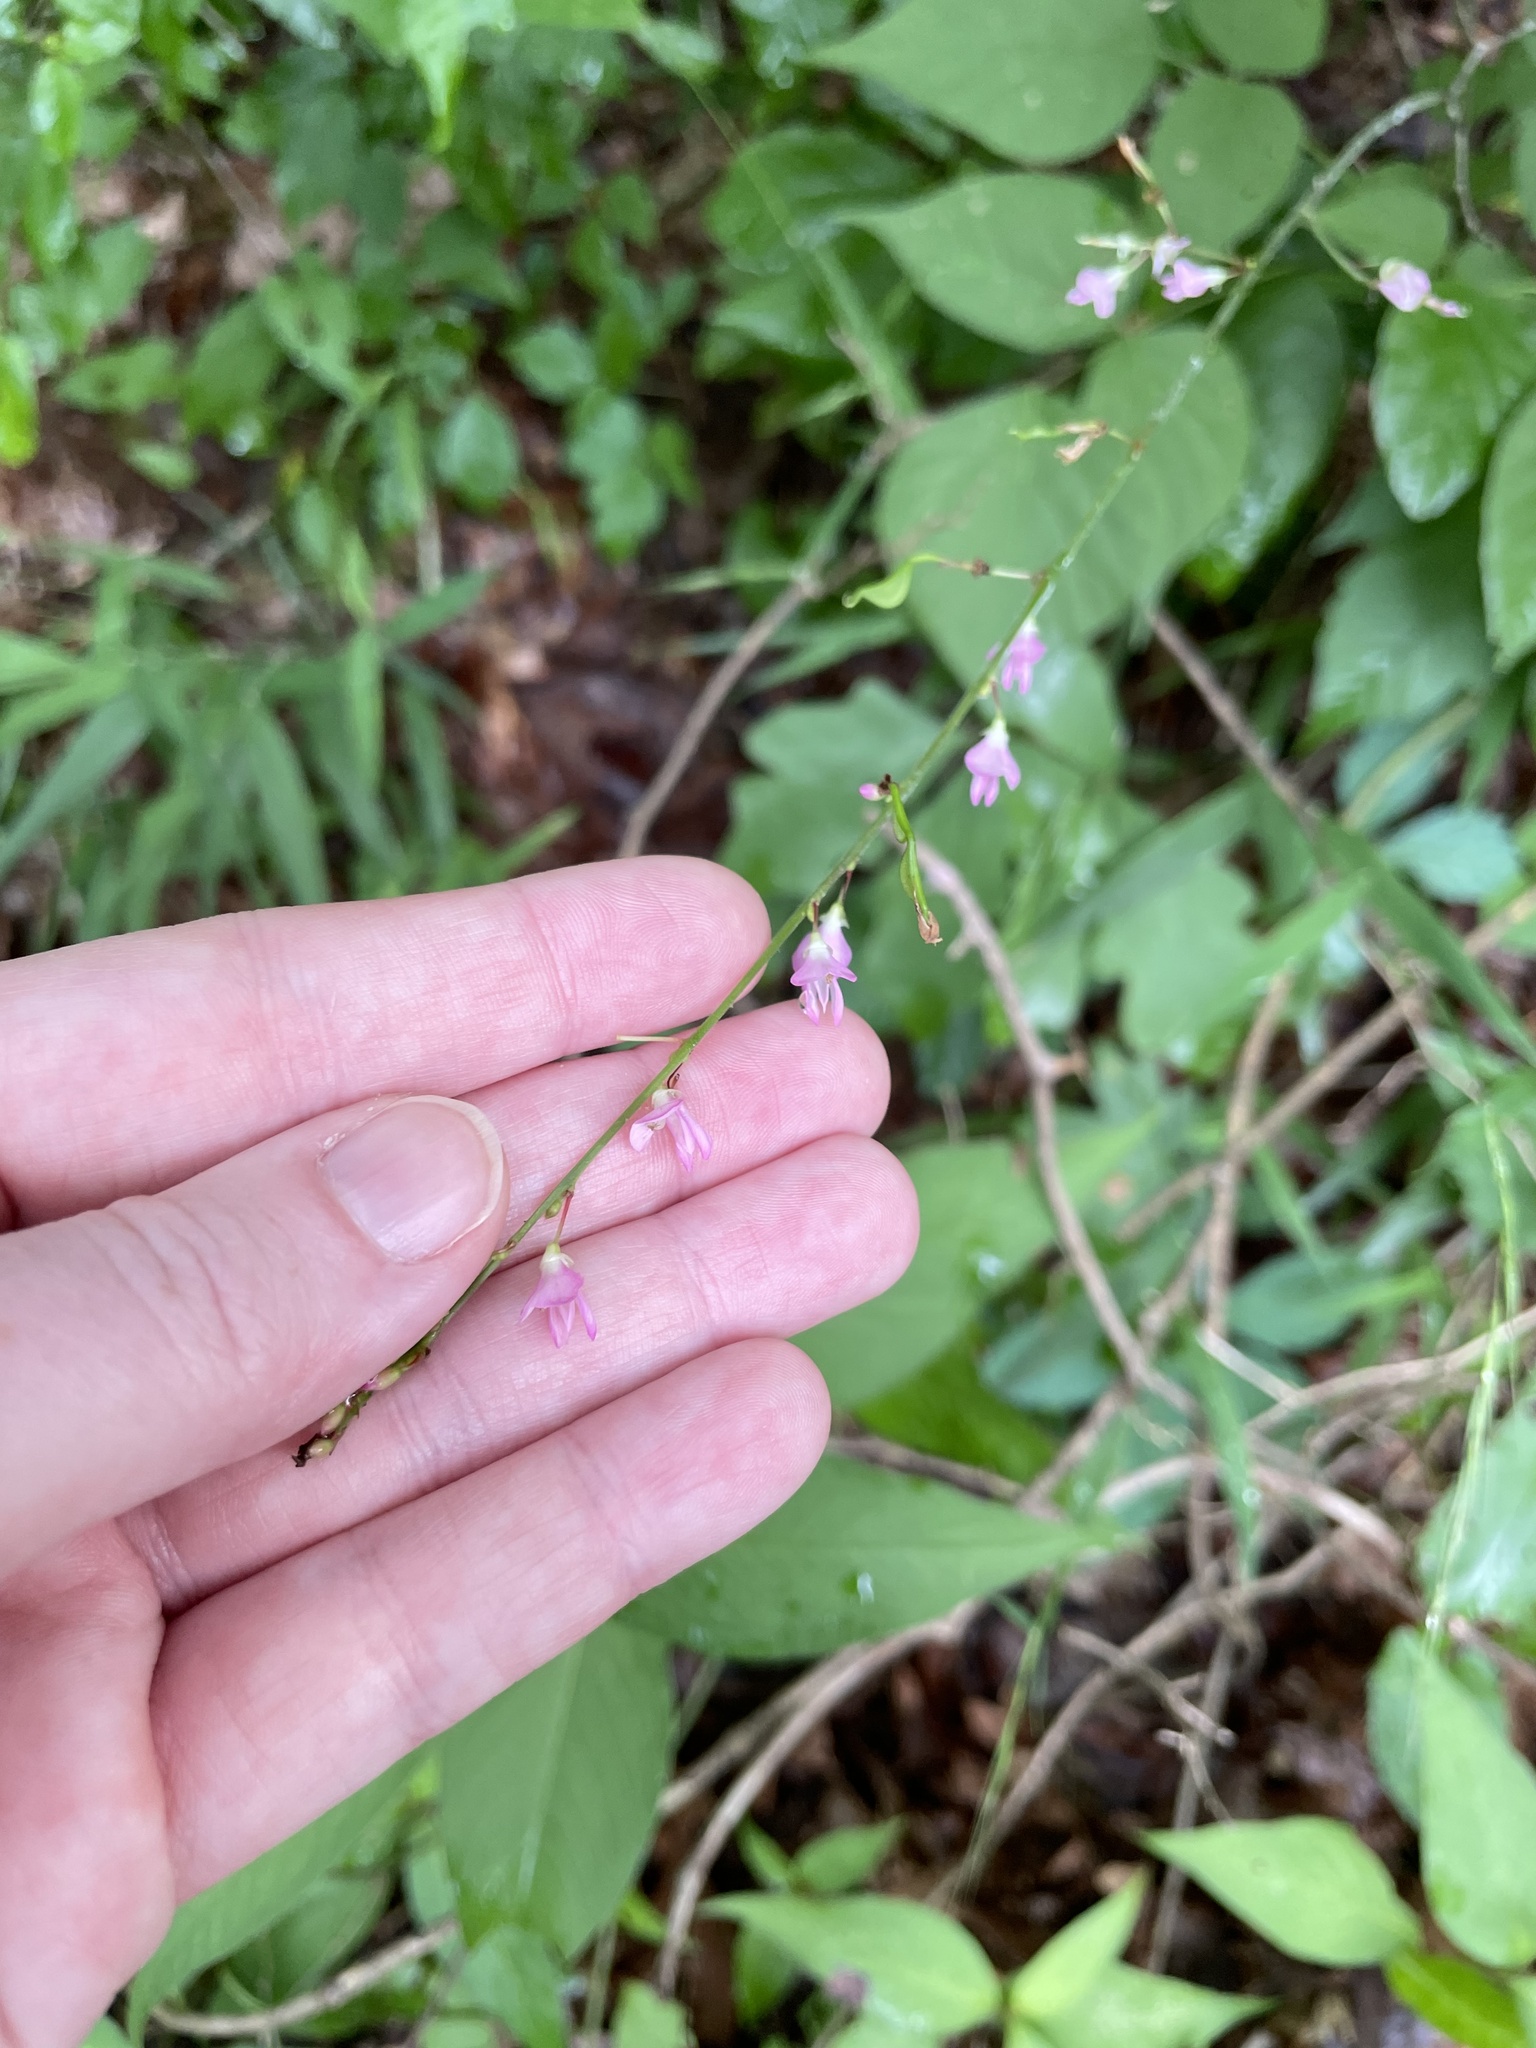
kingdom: Plantae
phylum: Tracheophyta
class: Magnoliopsida
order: Fabales
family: Fabaceae
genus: Hylodesmum
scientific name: Hylodesmum glutinosum
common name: Clustered-leaved tick-trefoil
